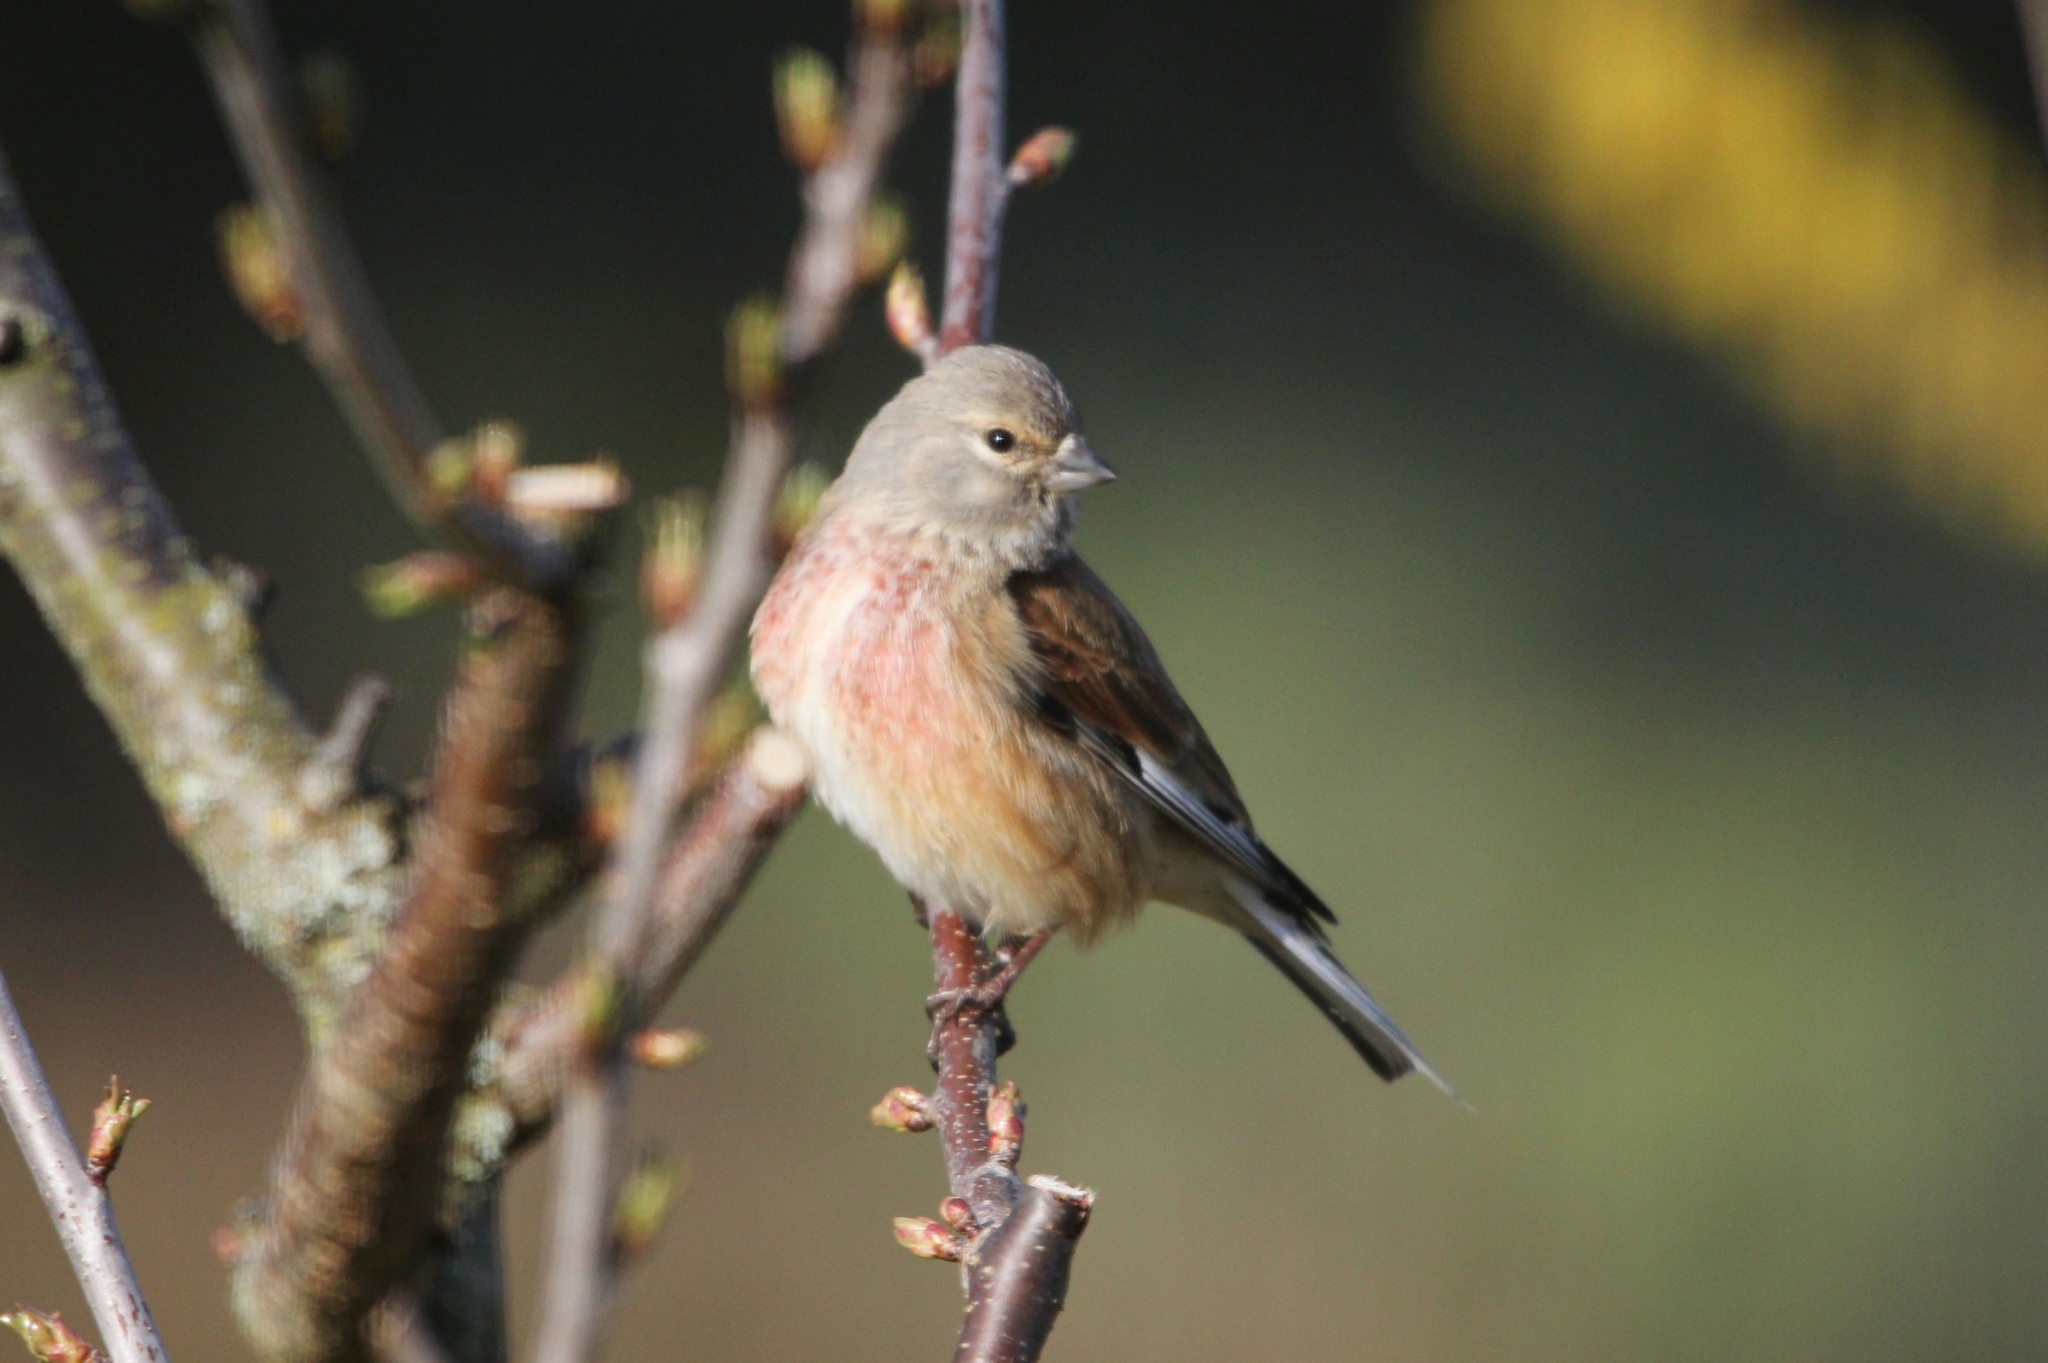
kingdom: Animalia
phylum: Chordata
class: Aves
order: Passeriformes
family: Fringillidae
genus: Linaria
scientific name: Linaria cannabina
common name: Common linnet
